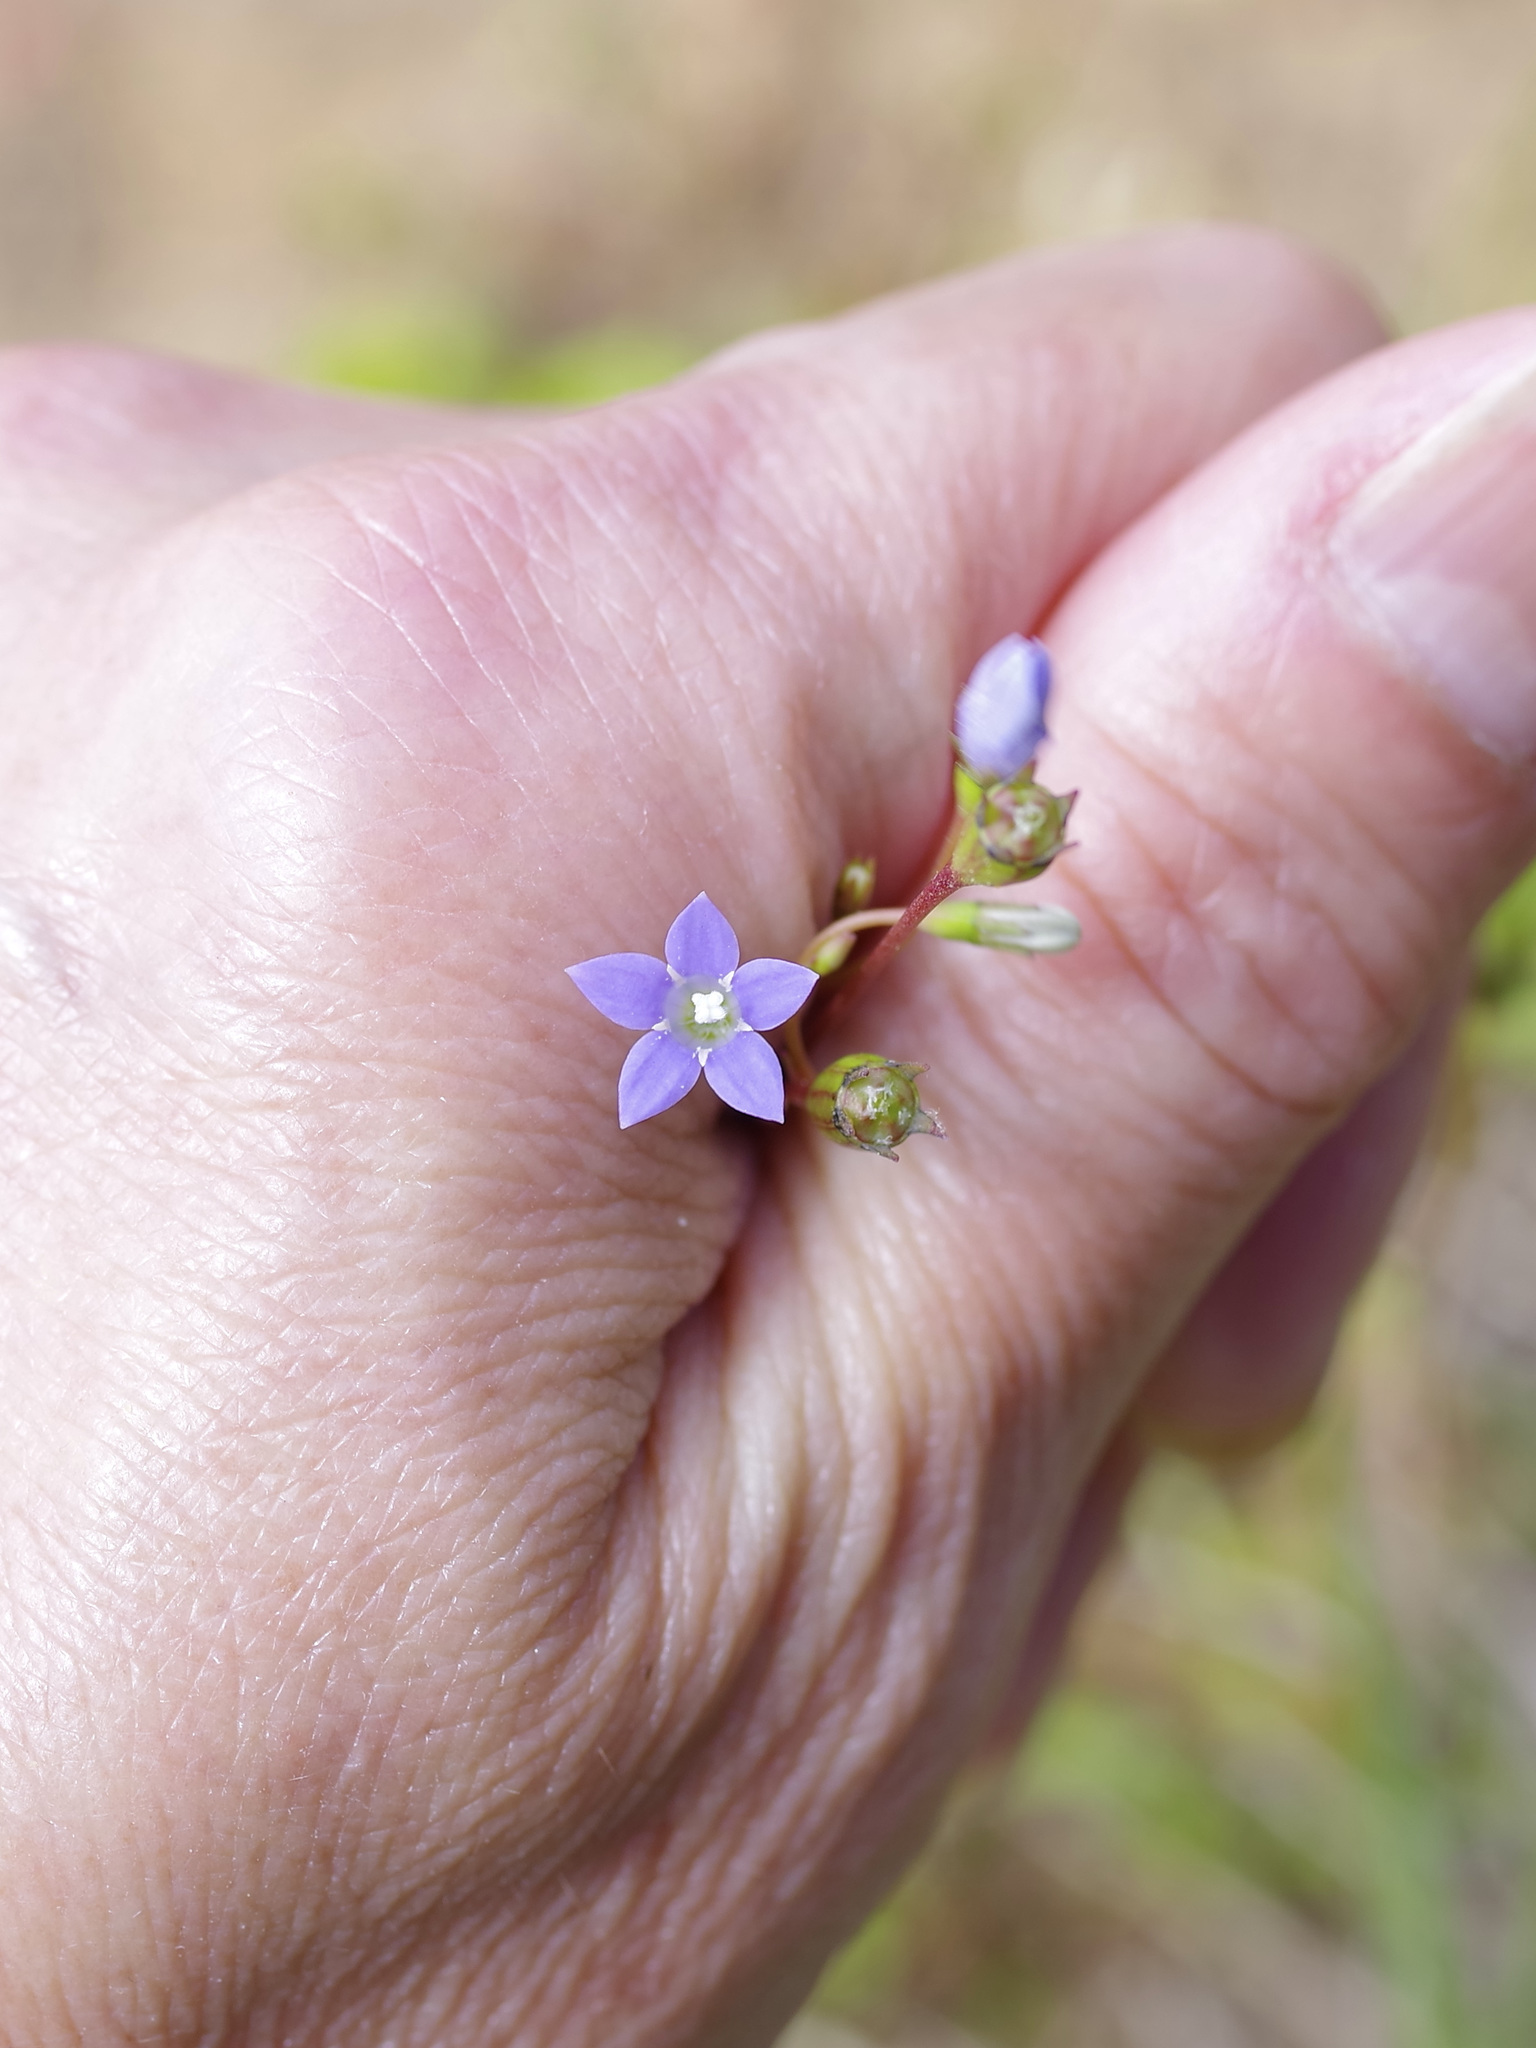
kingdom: Plantae
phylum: Tracheophyta
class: Magnoliopsida
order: Asterales
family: Campanulaceae
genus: Wahlenbergia
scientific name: Wahlenbergia marginata
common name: Southern rockbell
